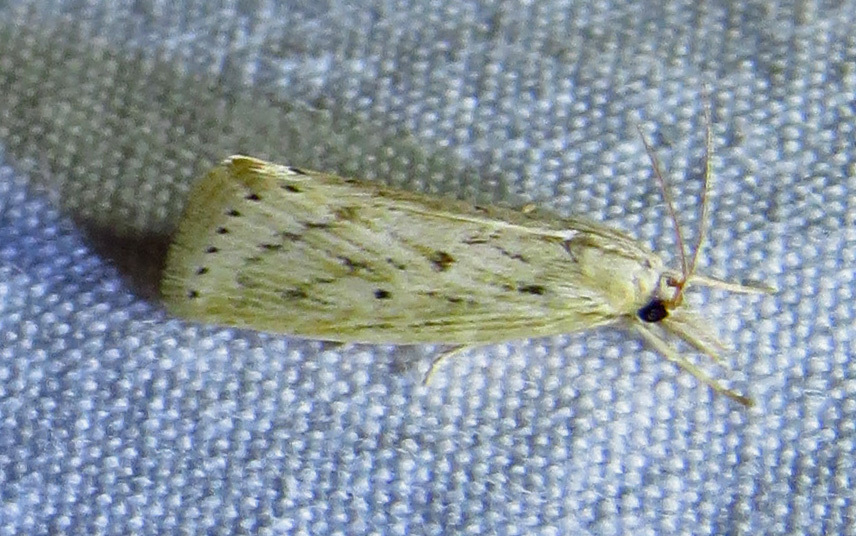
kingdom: Animalia
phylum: Arthropoda
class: Insecta
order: Lepidoptera
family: Crambidae
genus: Diatraea
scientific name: Diatraea lisetta
